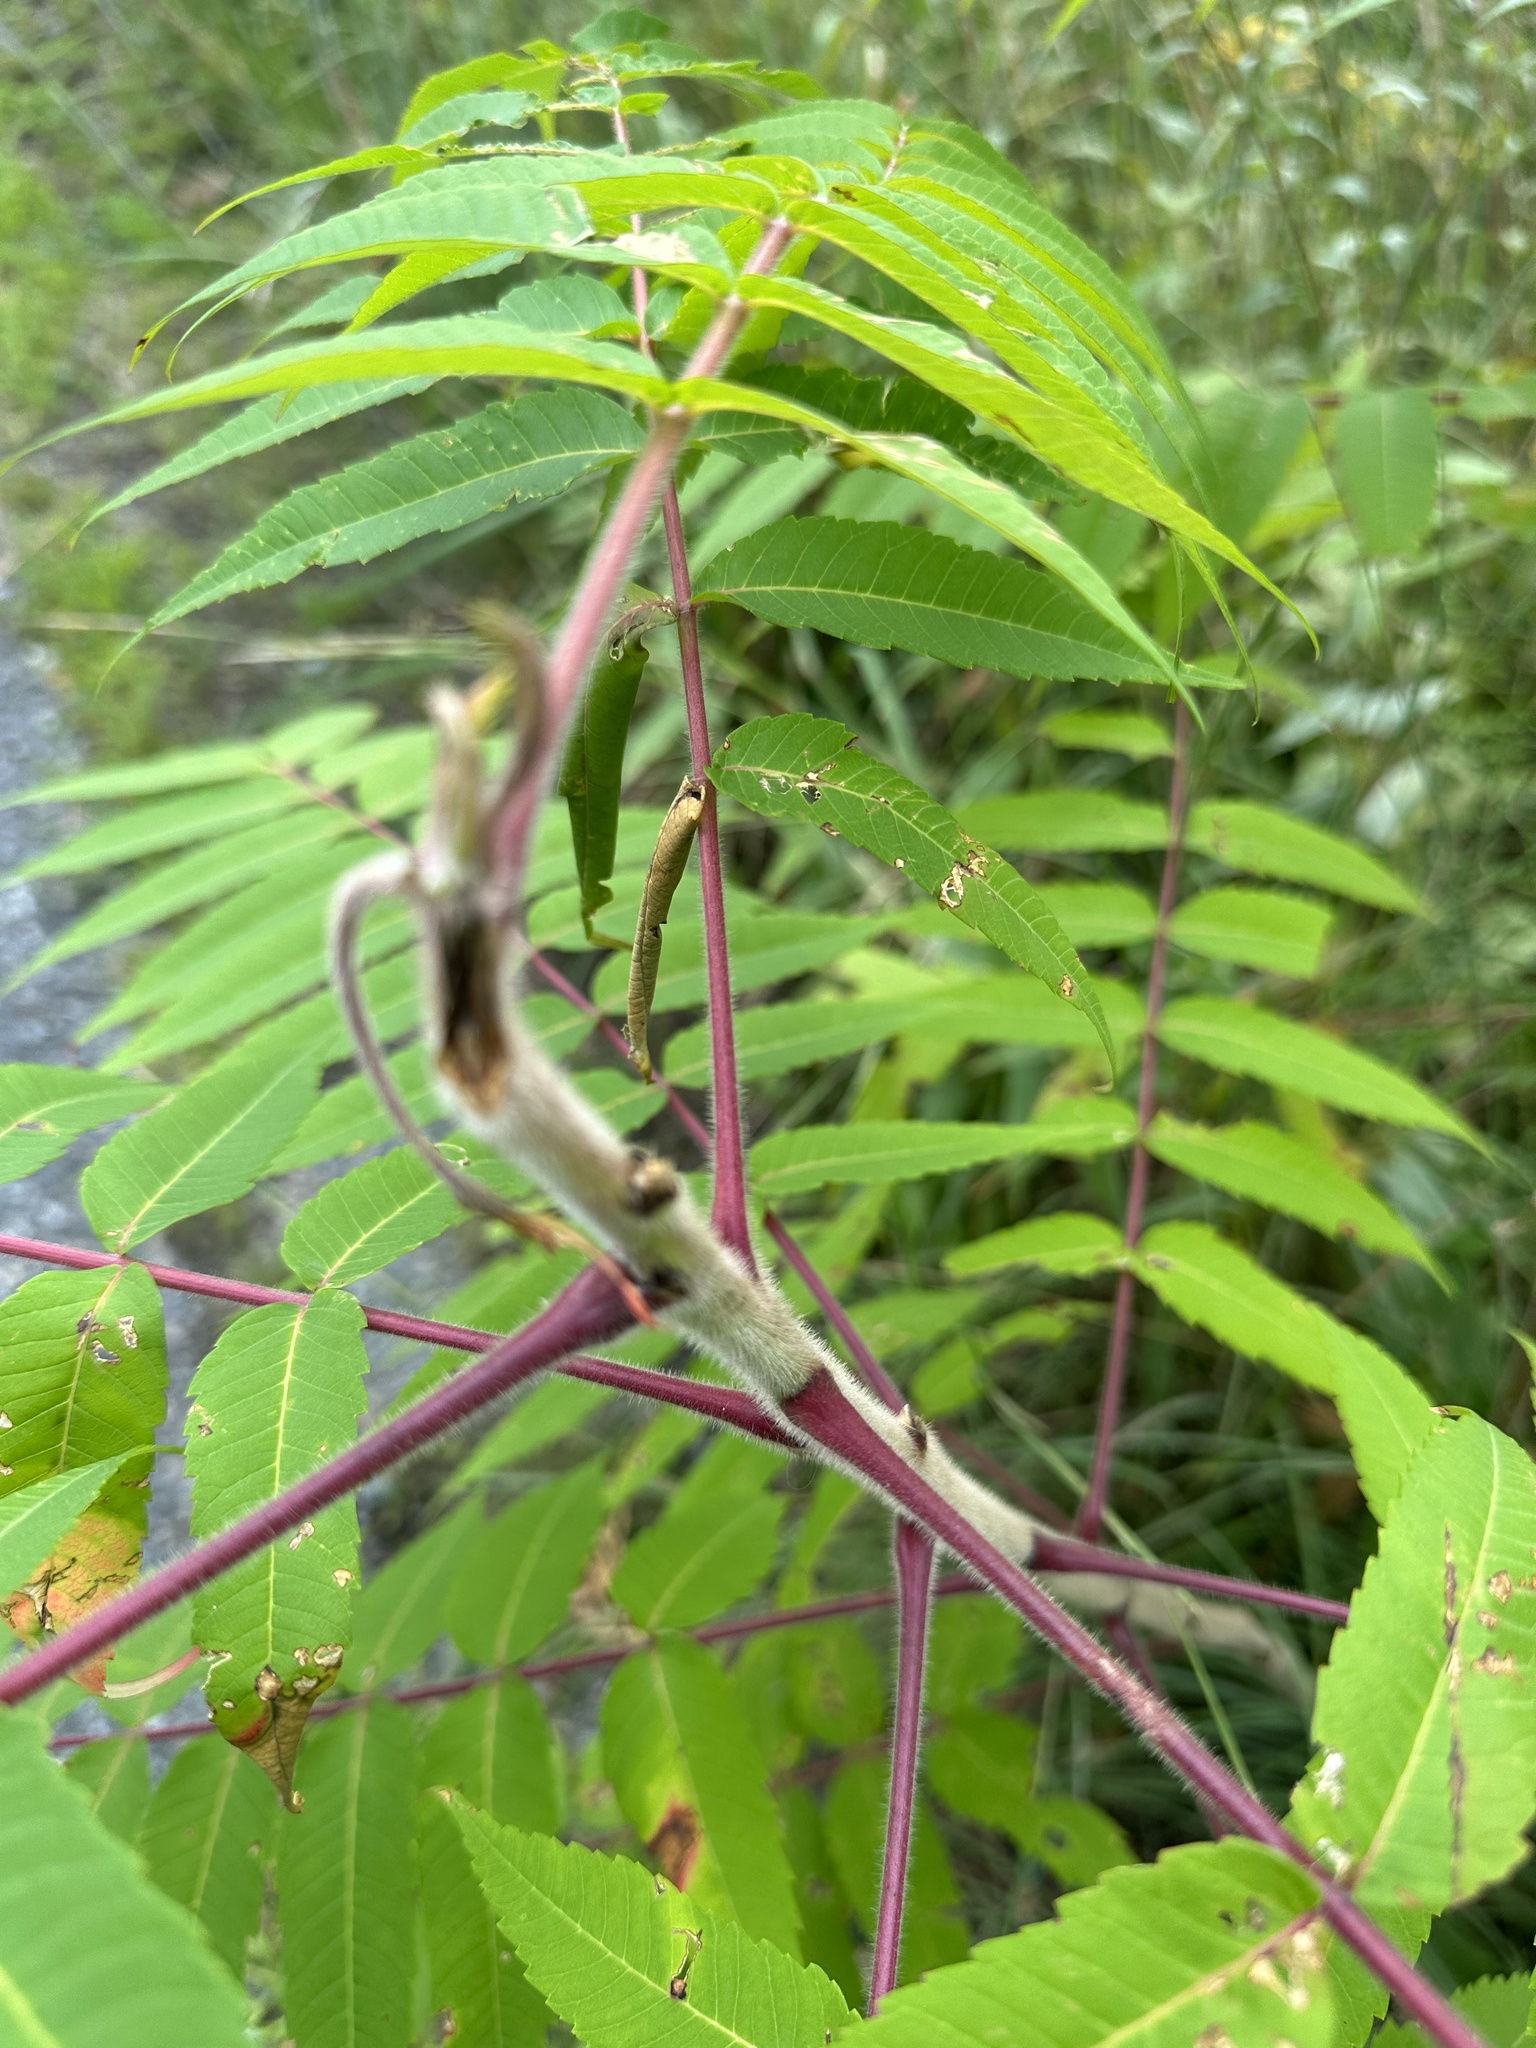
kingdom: Plantae
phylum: Tracheophyta
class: Magnoliopsida
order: Sapindales
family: Anacardiaceae
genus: Rhus
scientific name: Rhus typhina
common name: Staghorn sumac
